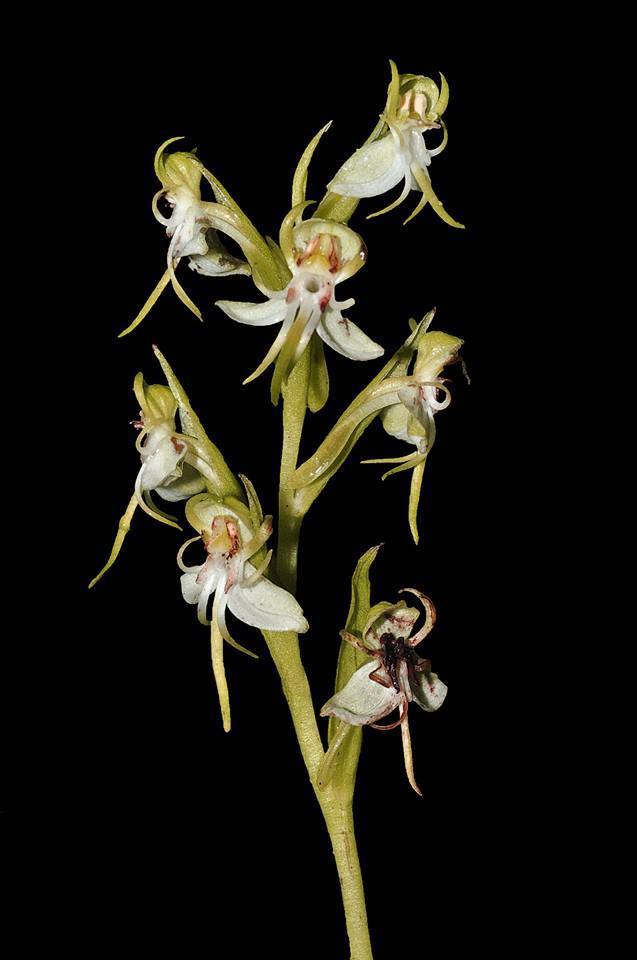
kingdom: Plantae
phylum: Tracheophyta
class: Liliopsida
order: Asparagales
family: Orchidaceae
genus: Habenaria
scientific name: Habenaria gibsonii
